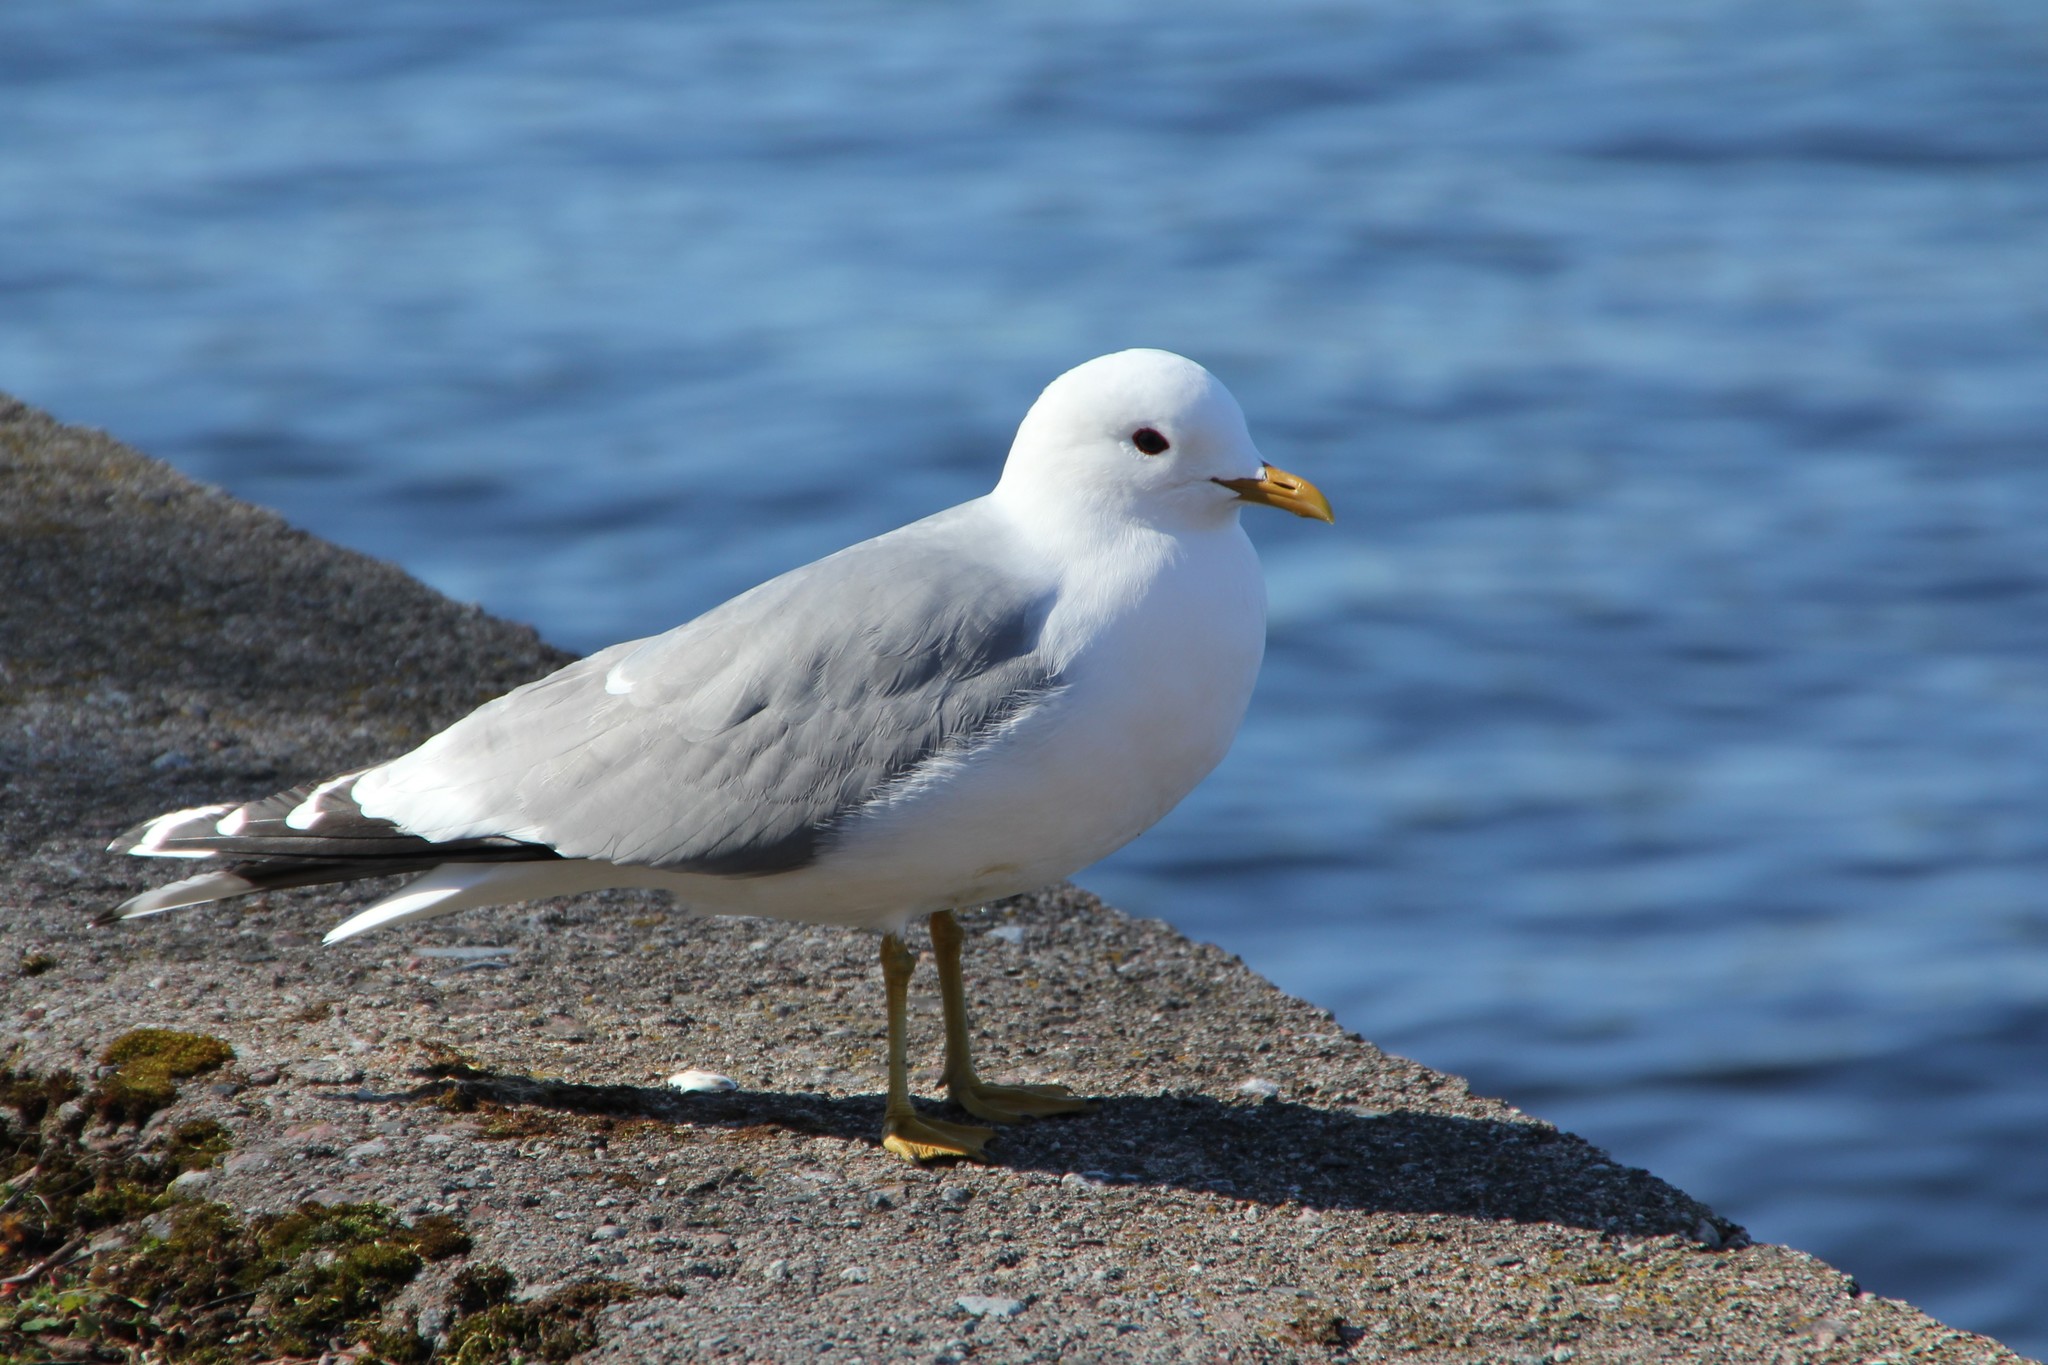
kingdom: Animalia
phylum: Chordata
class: Aves
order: Charadriiformes
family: Laridae
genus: Larus
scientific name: Larus canus
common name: Mew gull
